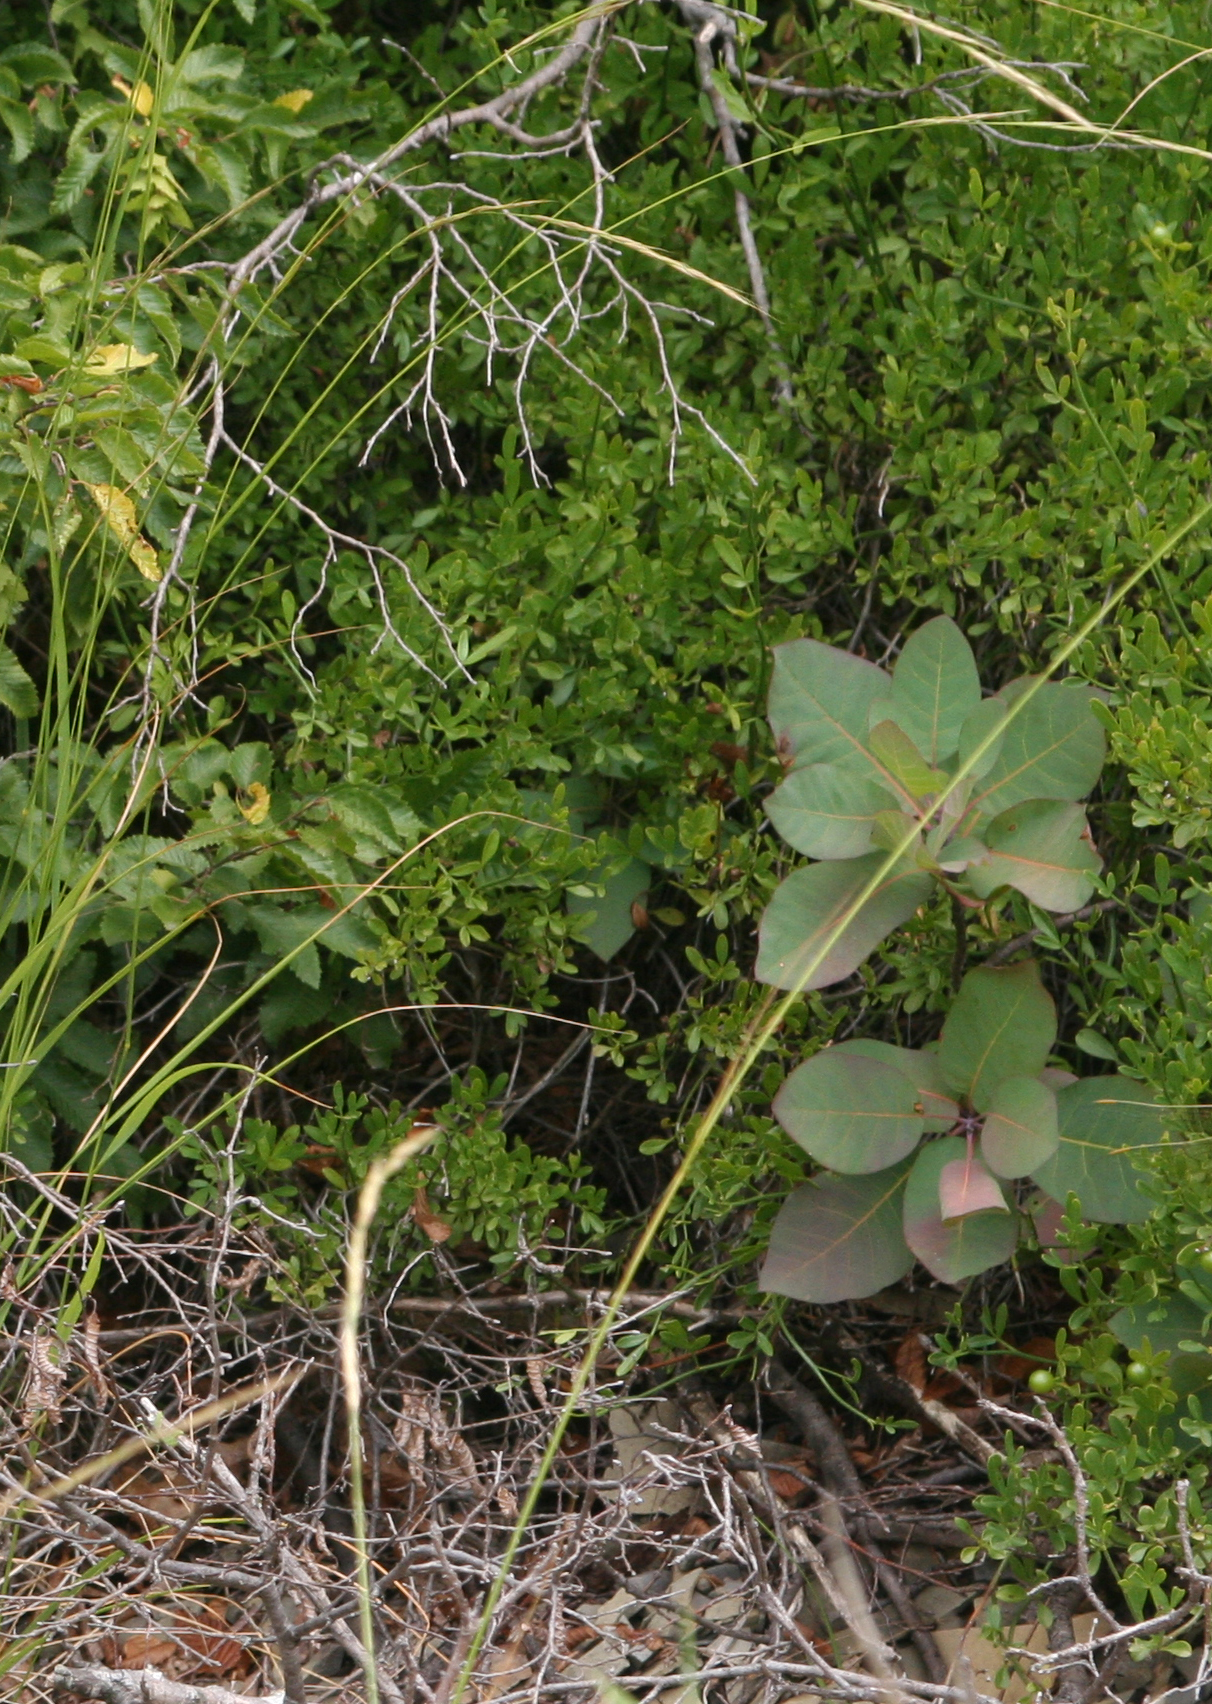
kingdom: Plantae
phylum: Tracheophyta
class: Magnoliopsida
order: Lamiales
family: Oleaceae
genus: Chrysojasminum
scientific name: Chrysojasminum fruticans
